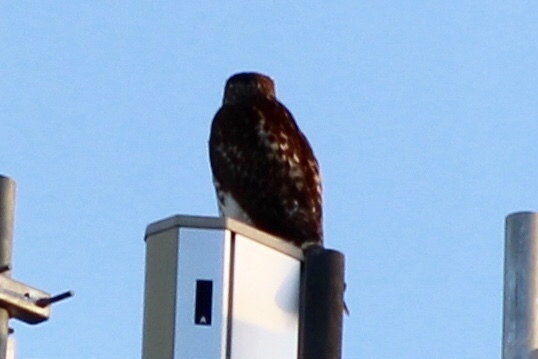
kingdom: Animalia
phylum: Chordata
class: Aves
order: Accipitriformes
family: Accipitridae
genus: Buteo
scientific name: Buteo jamaicensis
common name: Red-tailed hawk
